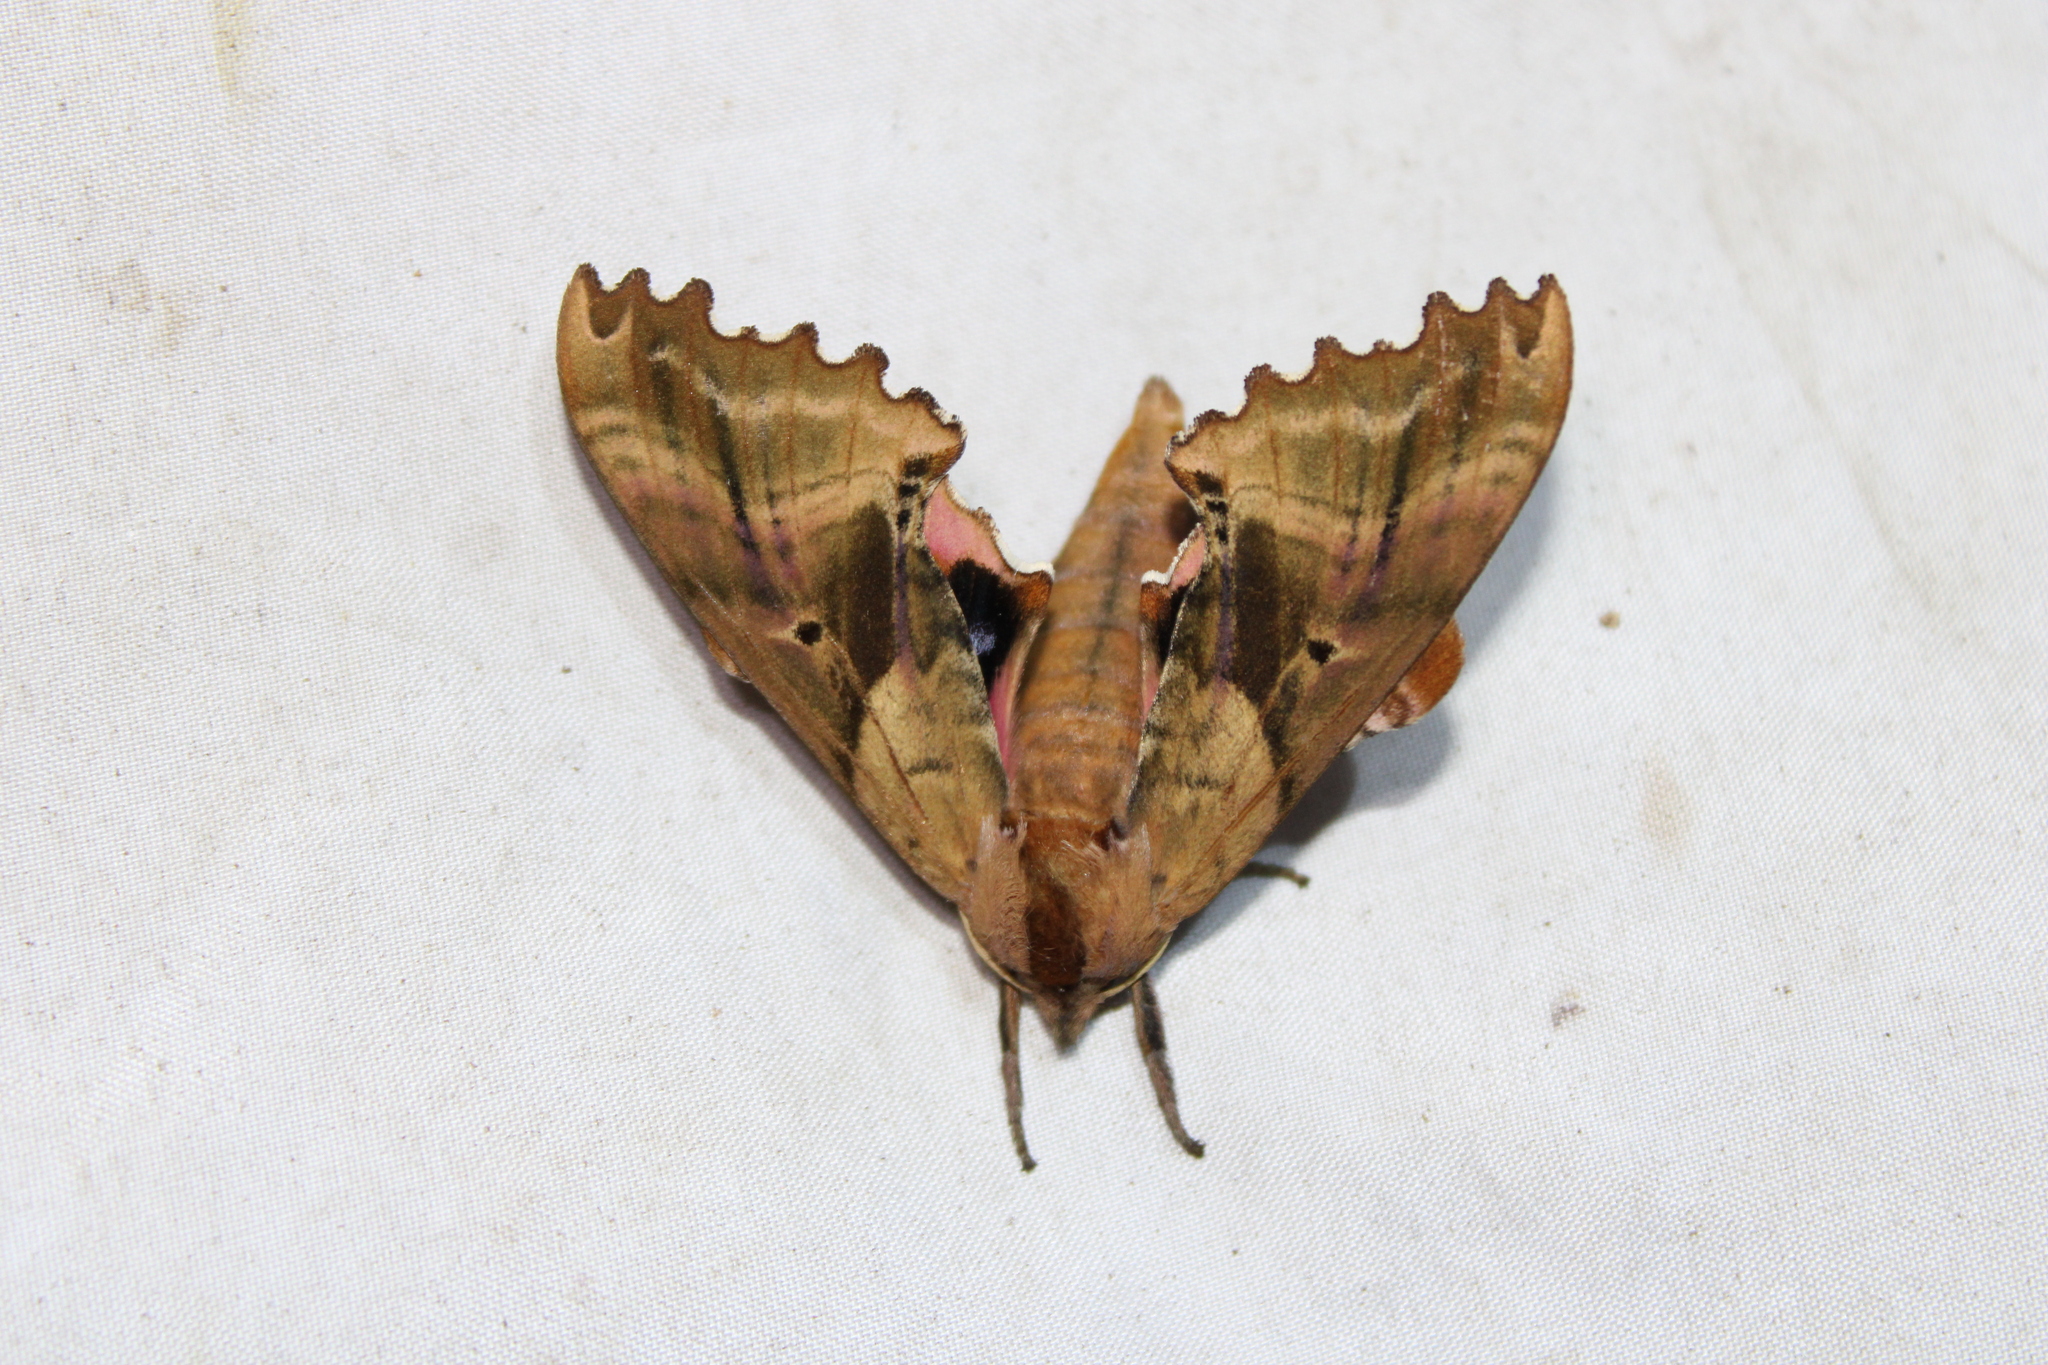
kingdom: Animalia
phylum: Arthropoda
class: Insecta
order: Lepidoptera
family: Sphingidae
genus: Paonias
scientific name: Paonias excaecata
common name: Blind-eyed sphinx
